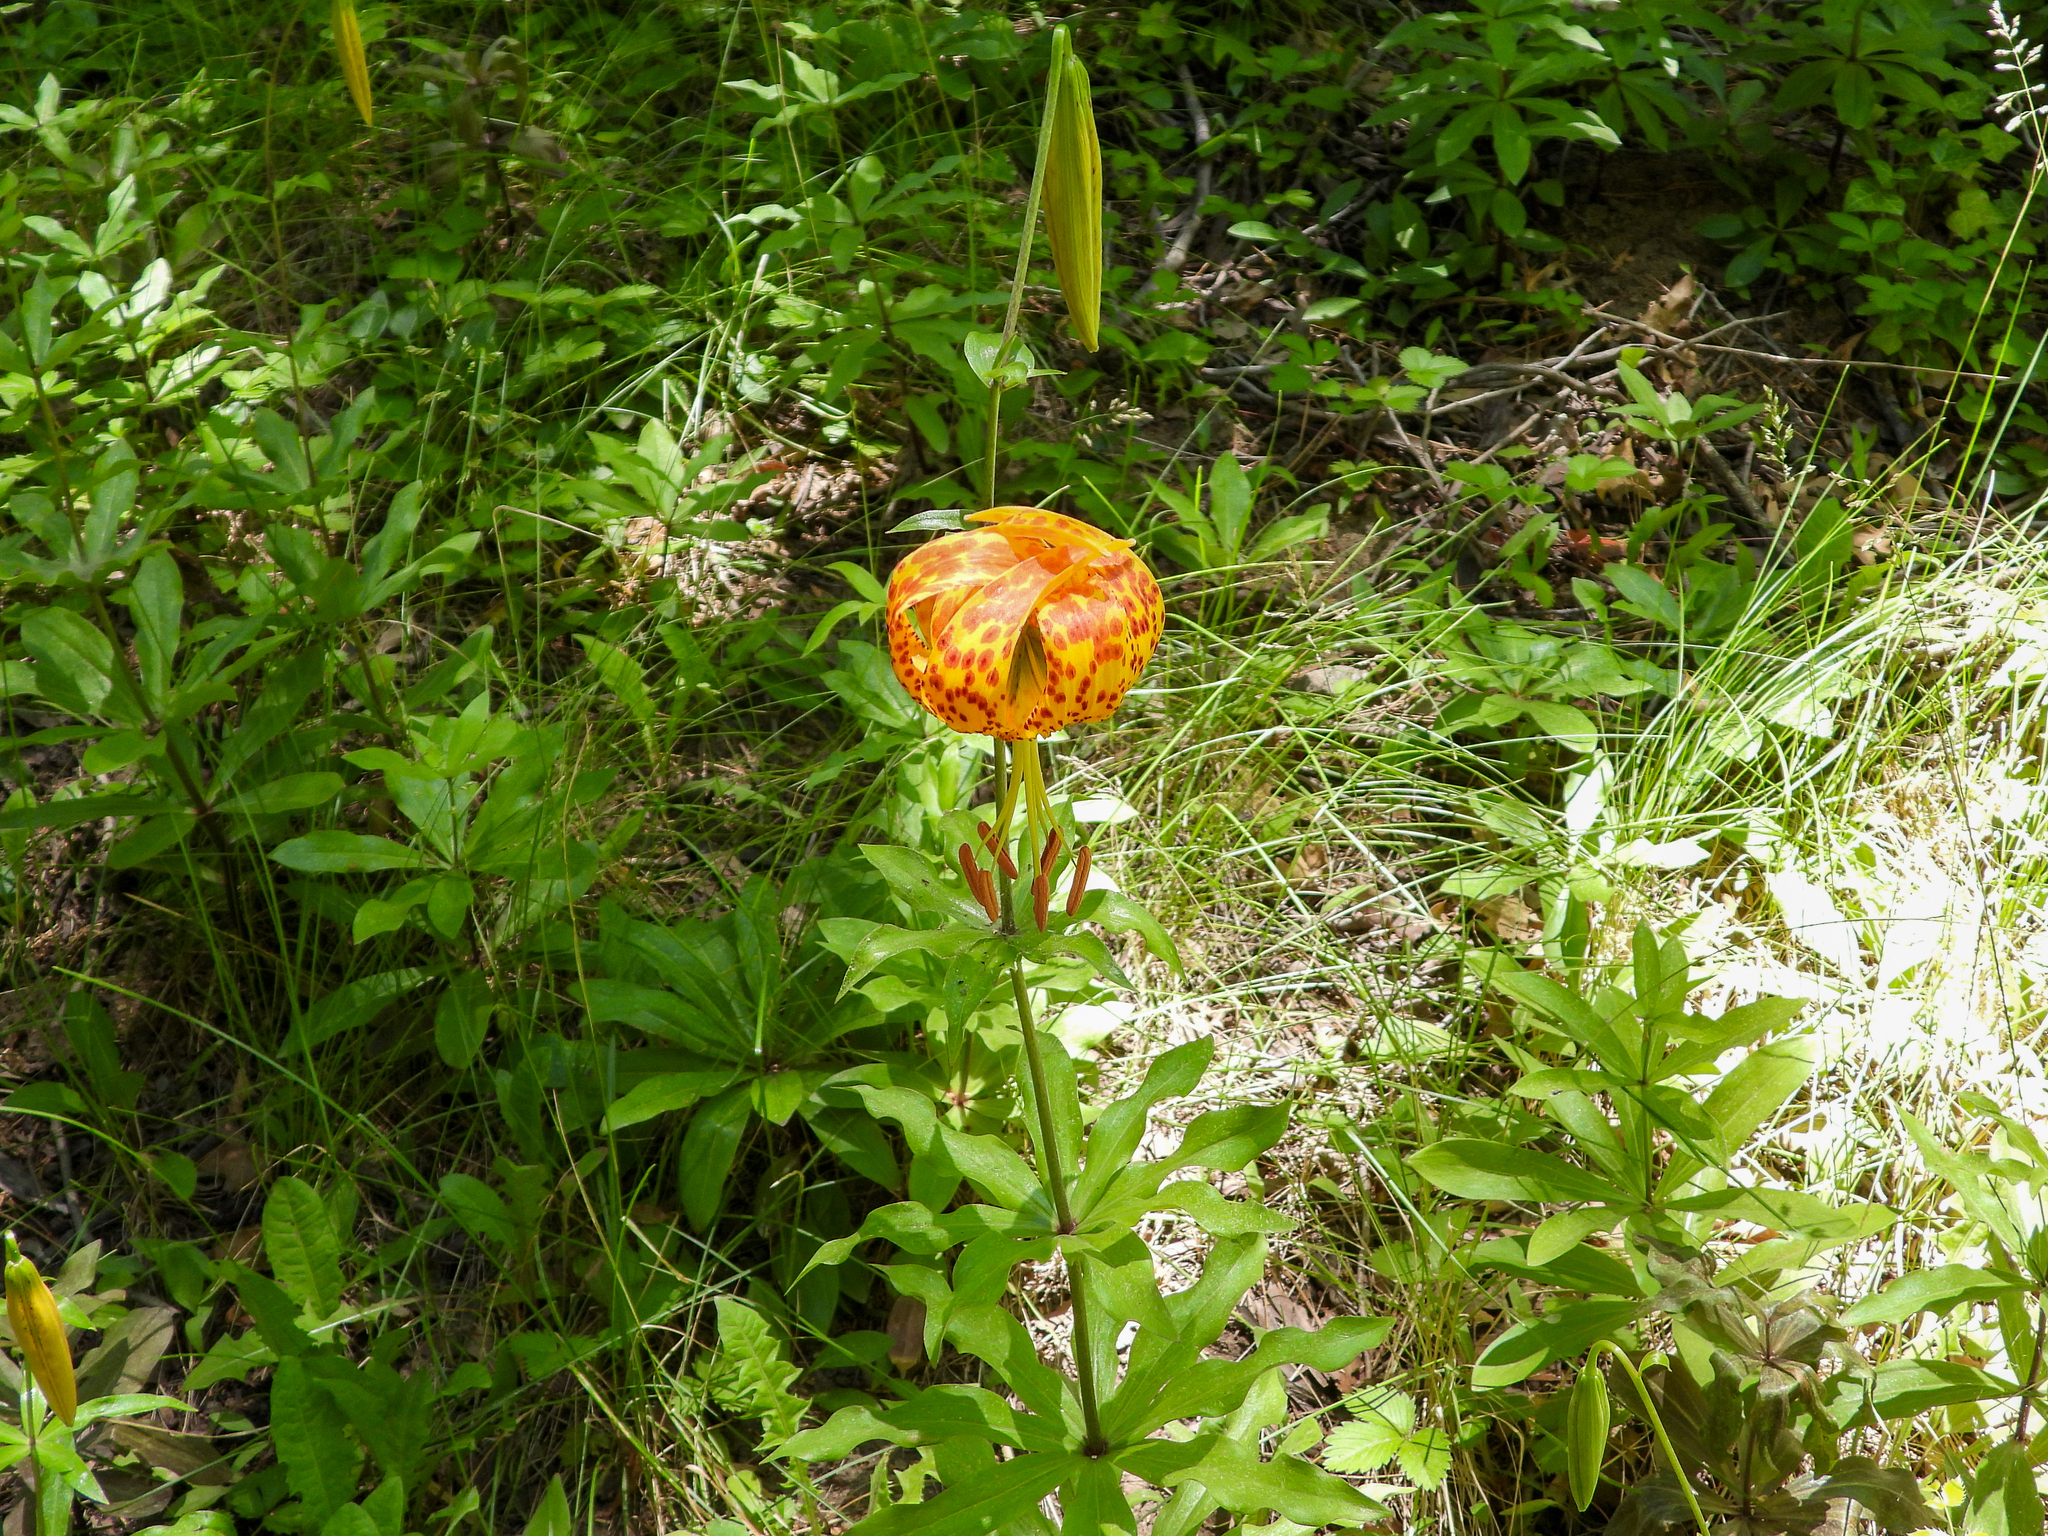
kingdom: Plantae
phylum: Tracheophyta
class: Liliopsida
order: Liliales
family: Liliaceae
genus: Lilium
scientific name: Lilium humboldtii
